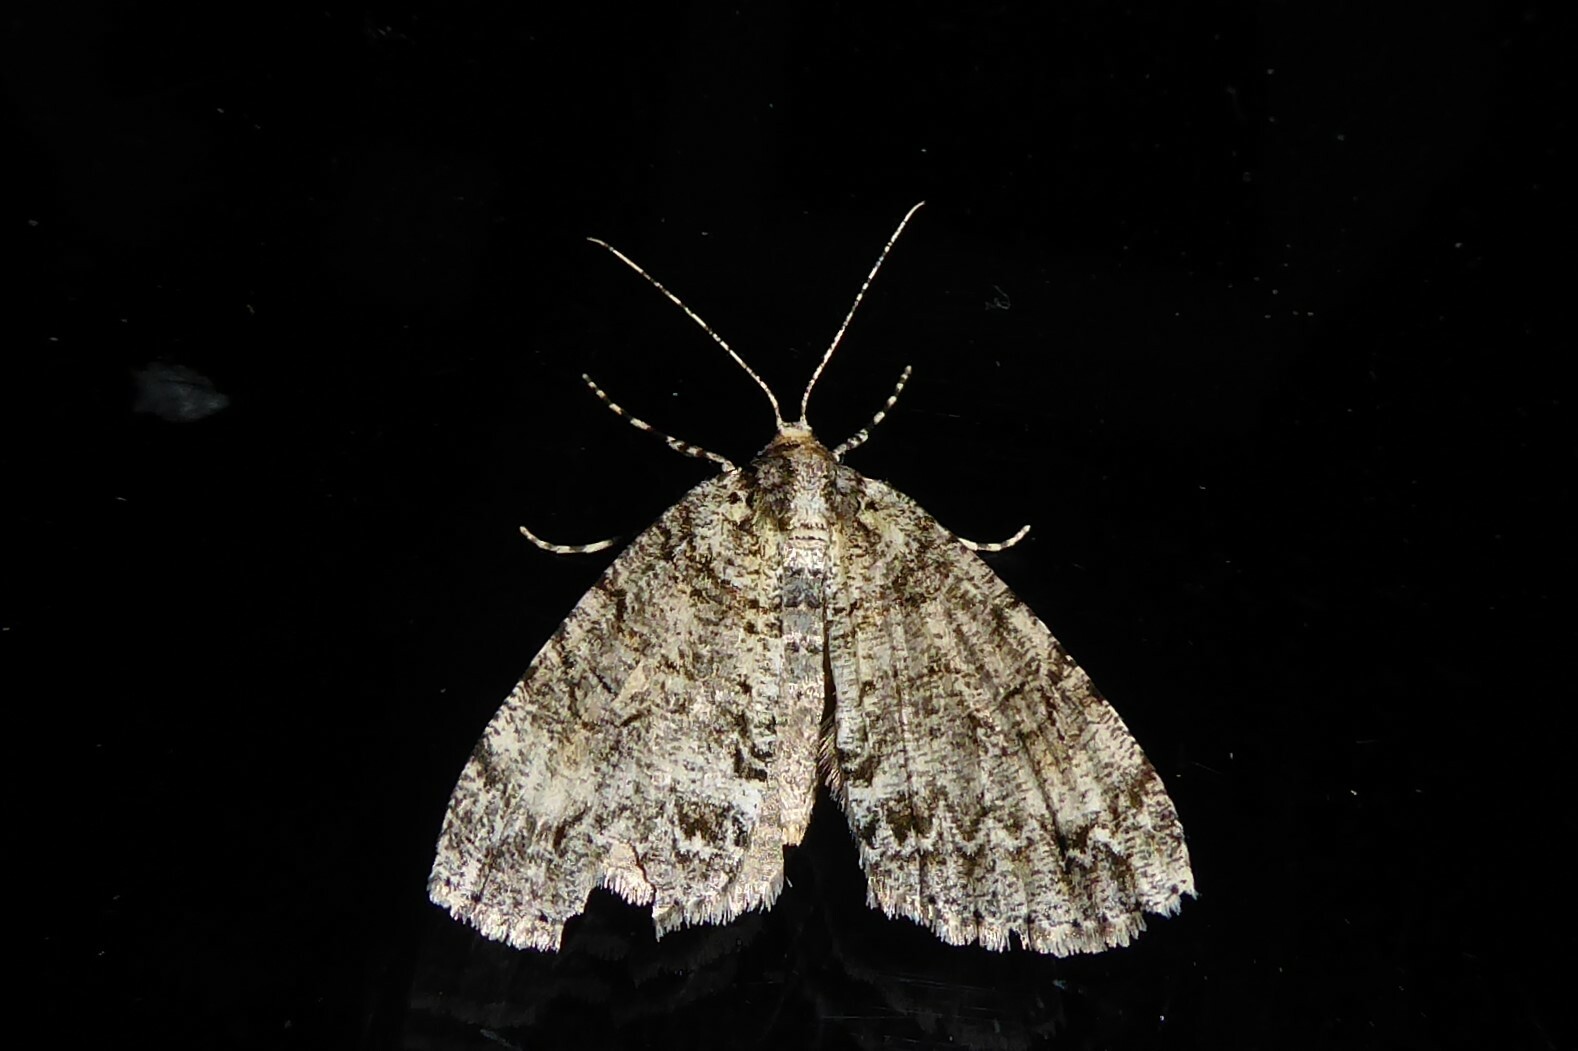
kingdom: Animalia
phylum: Arthropoda
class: Insecta
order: Lepidoptera
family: Geometridae
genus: Pseudocoremia
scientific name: Pseudocoremia suavis
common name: Common forest looper
